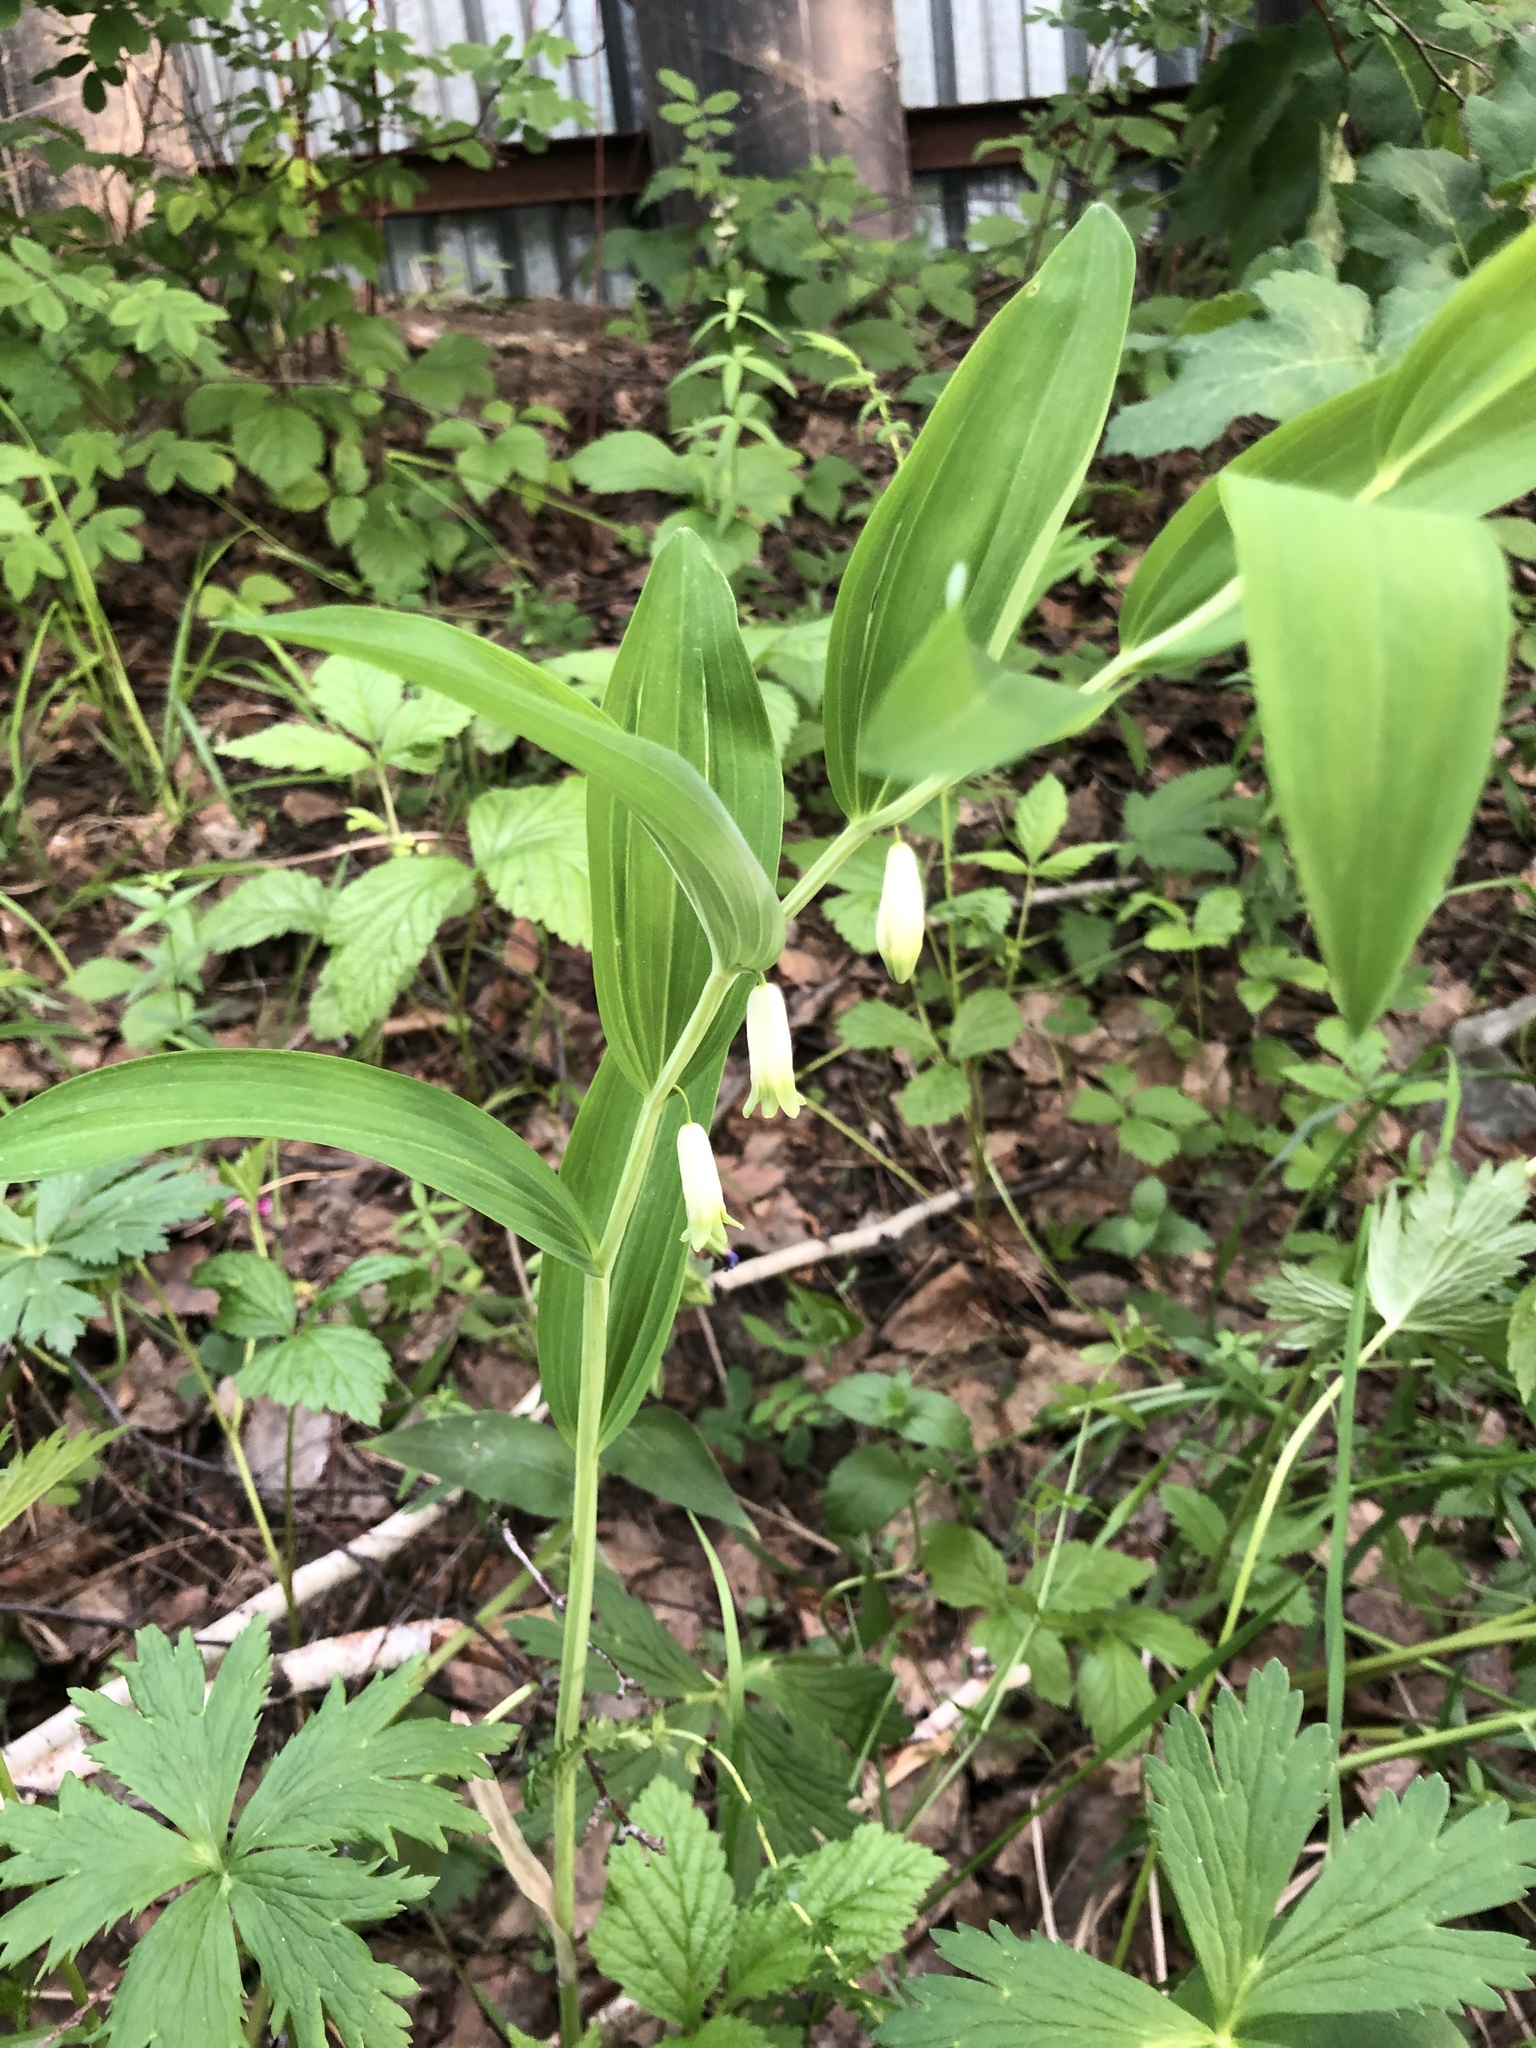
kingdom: Plantae
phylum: Tracheophyta
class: Liliopsida
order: Asparagales
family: Asparagaceae
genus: Polygonatum
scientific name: Polygonatum odoratum
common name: Angular solomon's-seal
